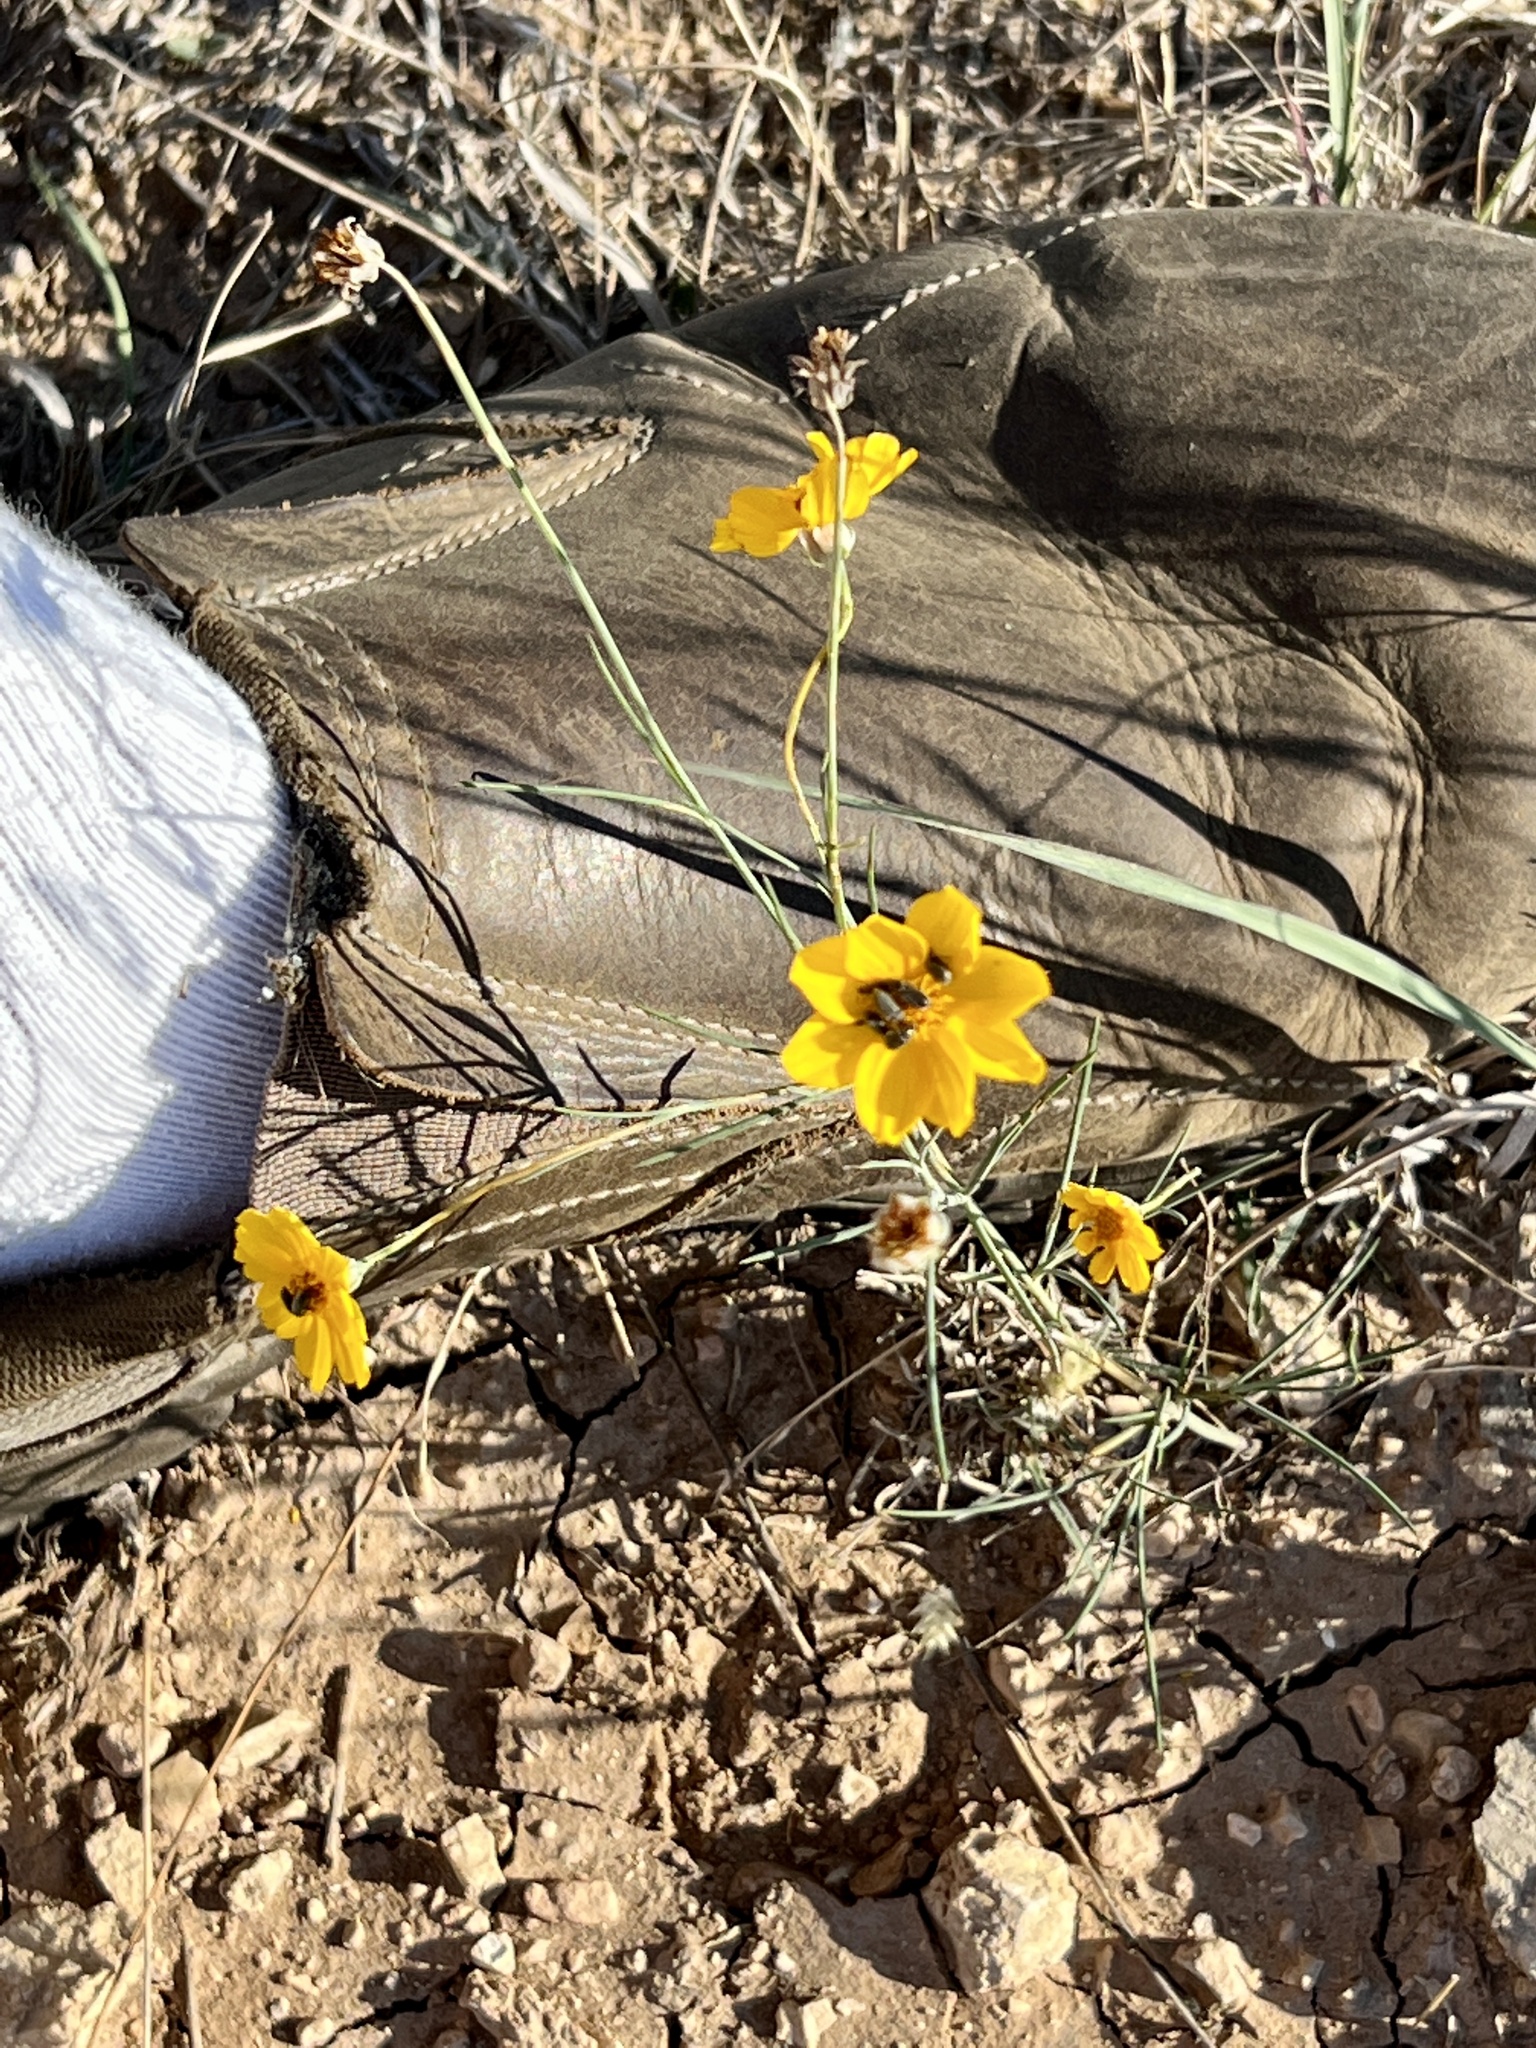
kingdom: Plantae
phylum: Tracheophyta
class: Magnoliopsida
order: Asterales
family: Asteraceae
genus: Thelesperma
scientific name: Thelesperma simplicifolium
